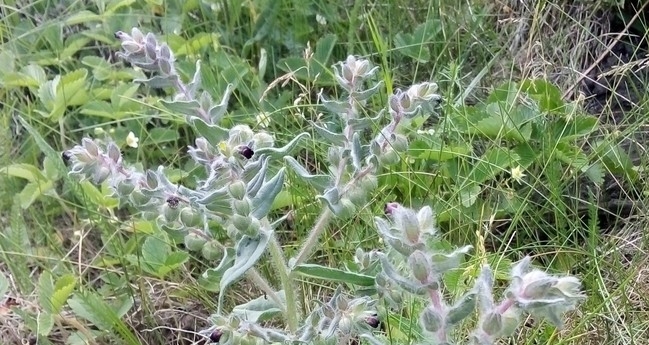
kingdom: Plantae
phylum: Tracheophyta
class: Magnoliopsida
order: Rosales
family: Rosaceae
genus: Fragaria
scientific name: Fragaria viridis
